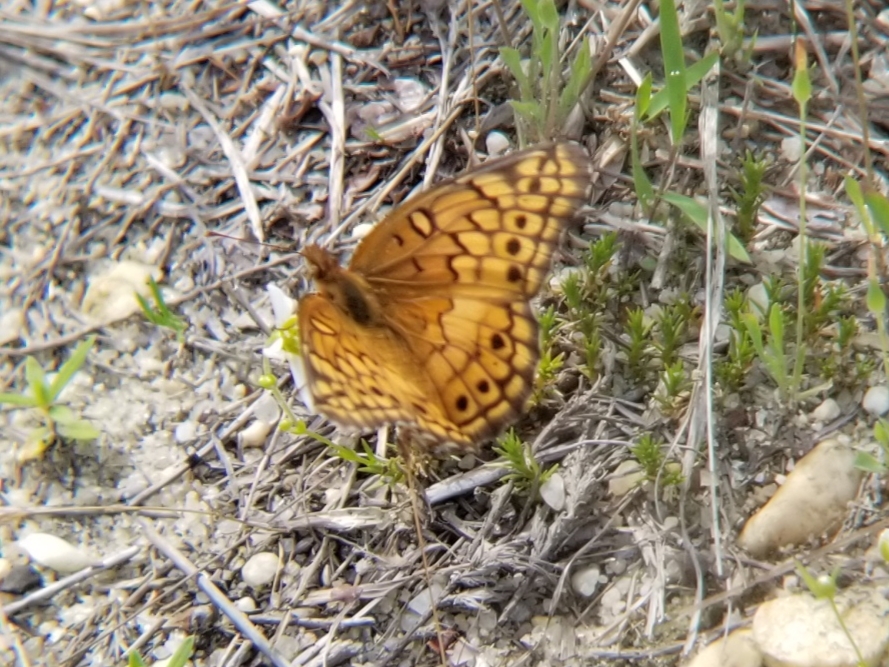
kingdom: Animalia
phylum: Arthropoda
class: Insecta
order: Lepidoptera
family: Nymphalidae
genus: Euptoieta
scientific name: Euptoieta claudia
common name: Variegated fritillary
